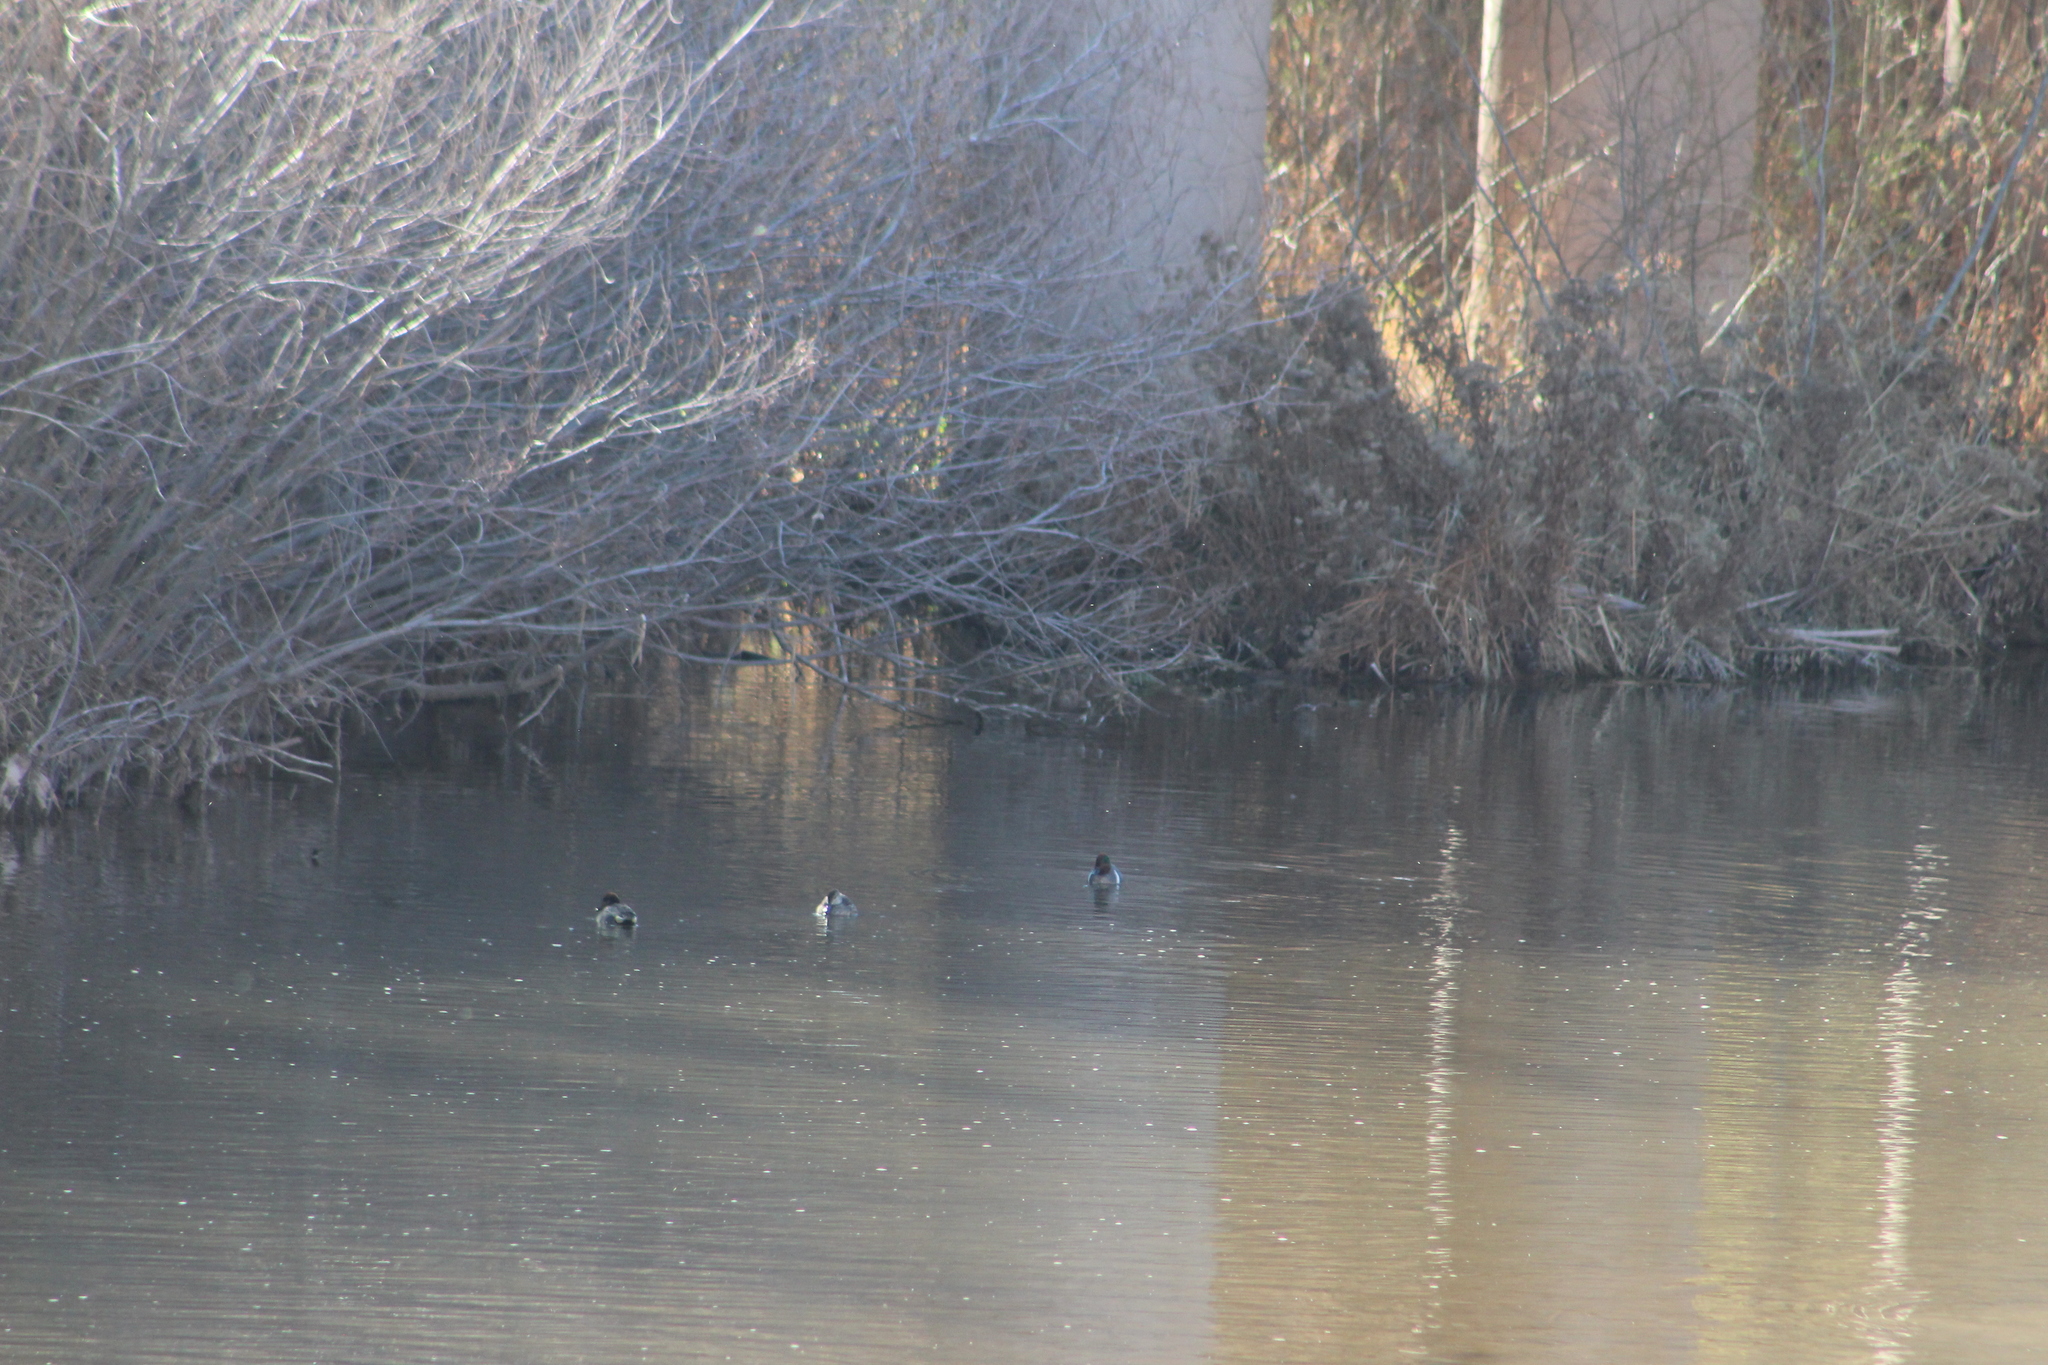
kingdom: Animalia
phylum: Chordata
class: Aves
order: Anseriformes
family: Anatidae
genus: Anas
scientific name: Anas crecca
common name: Eurasian teal
